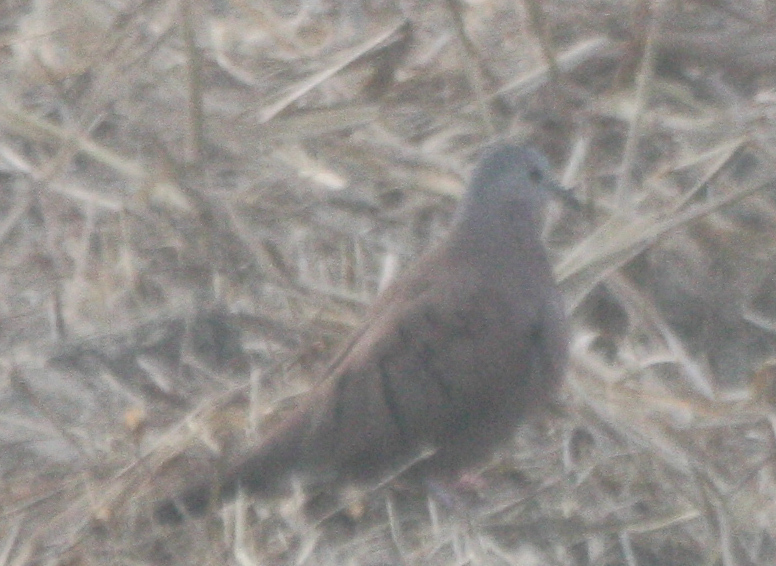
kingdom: Animalia
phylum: Chordata
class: Aves
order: Columbiformes
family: Columbidae
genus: Columbina
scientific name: Columbina talpacoti
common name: Ruddy ground dove
